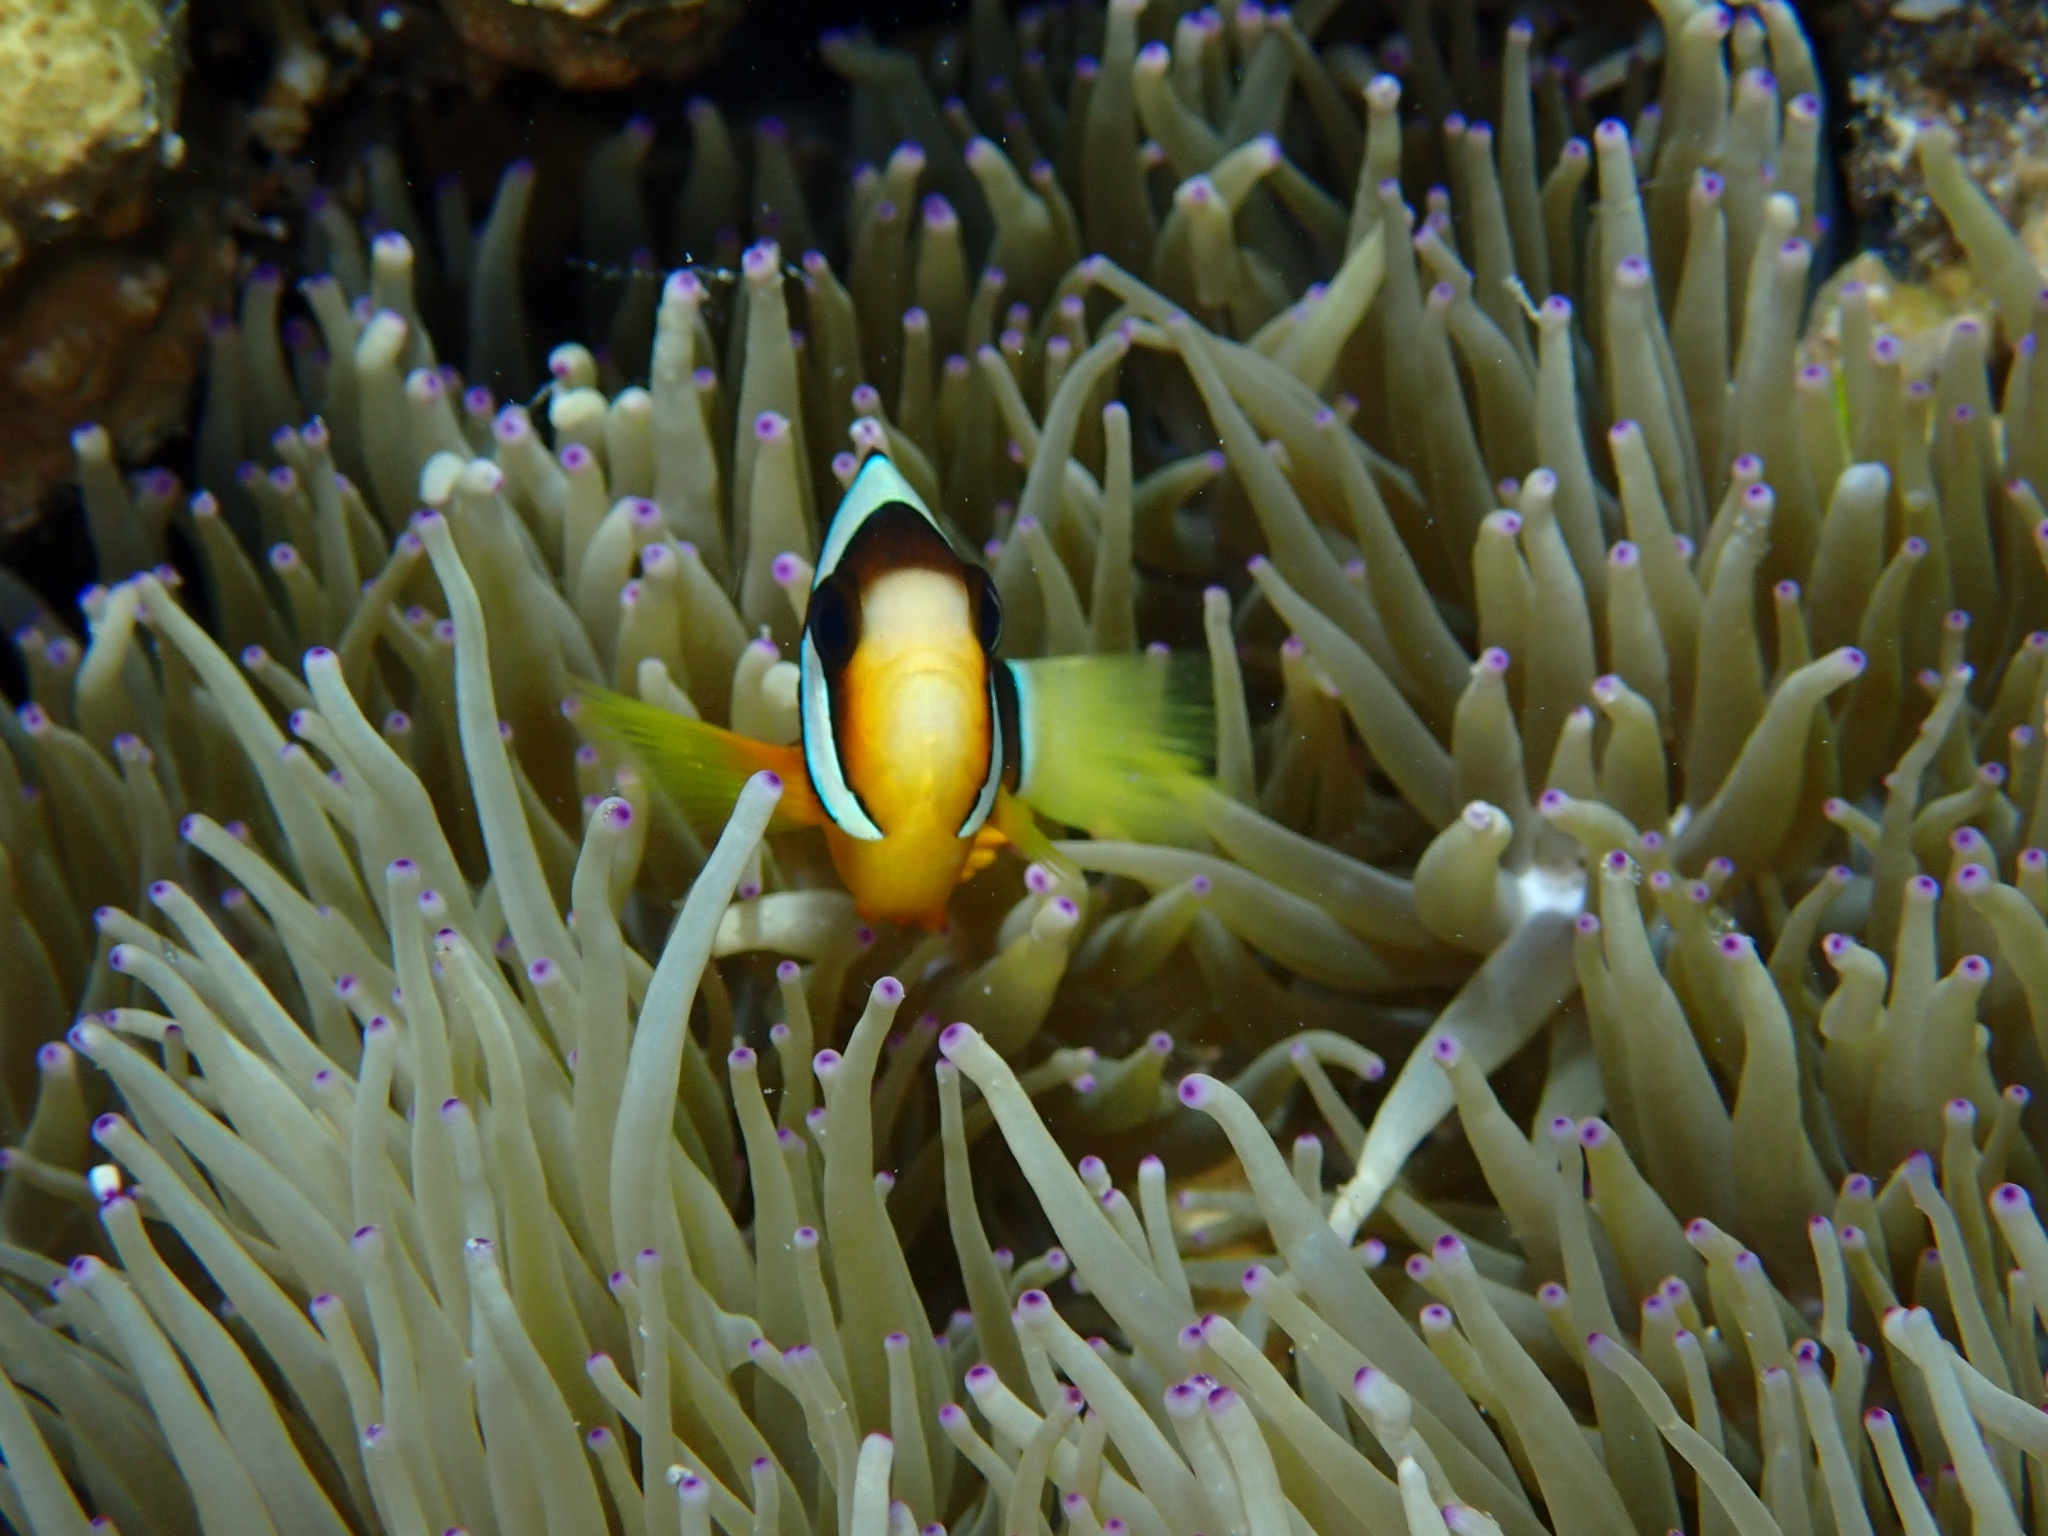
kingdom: Animalia
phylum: Chordata
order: Perciformes
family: Pomacentridae
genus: Amphiprion
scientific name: Amphiprion clarkii
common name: Clark's anemonefish
